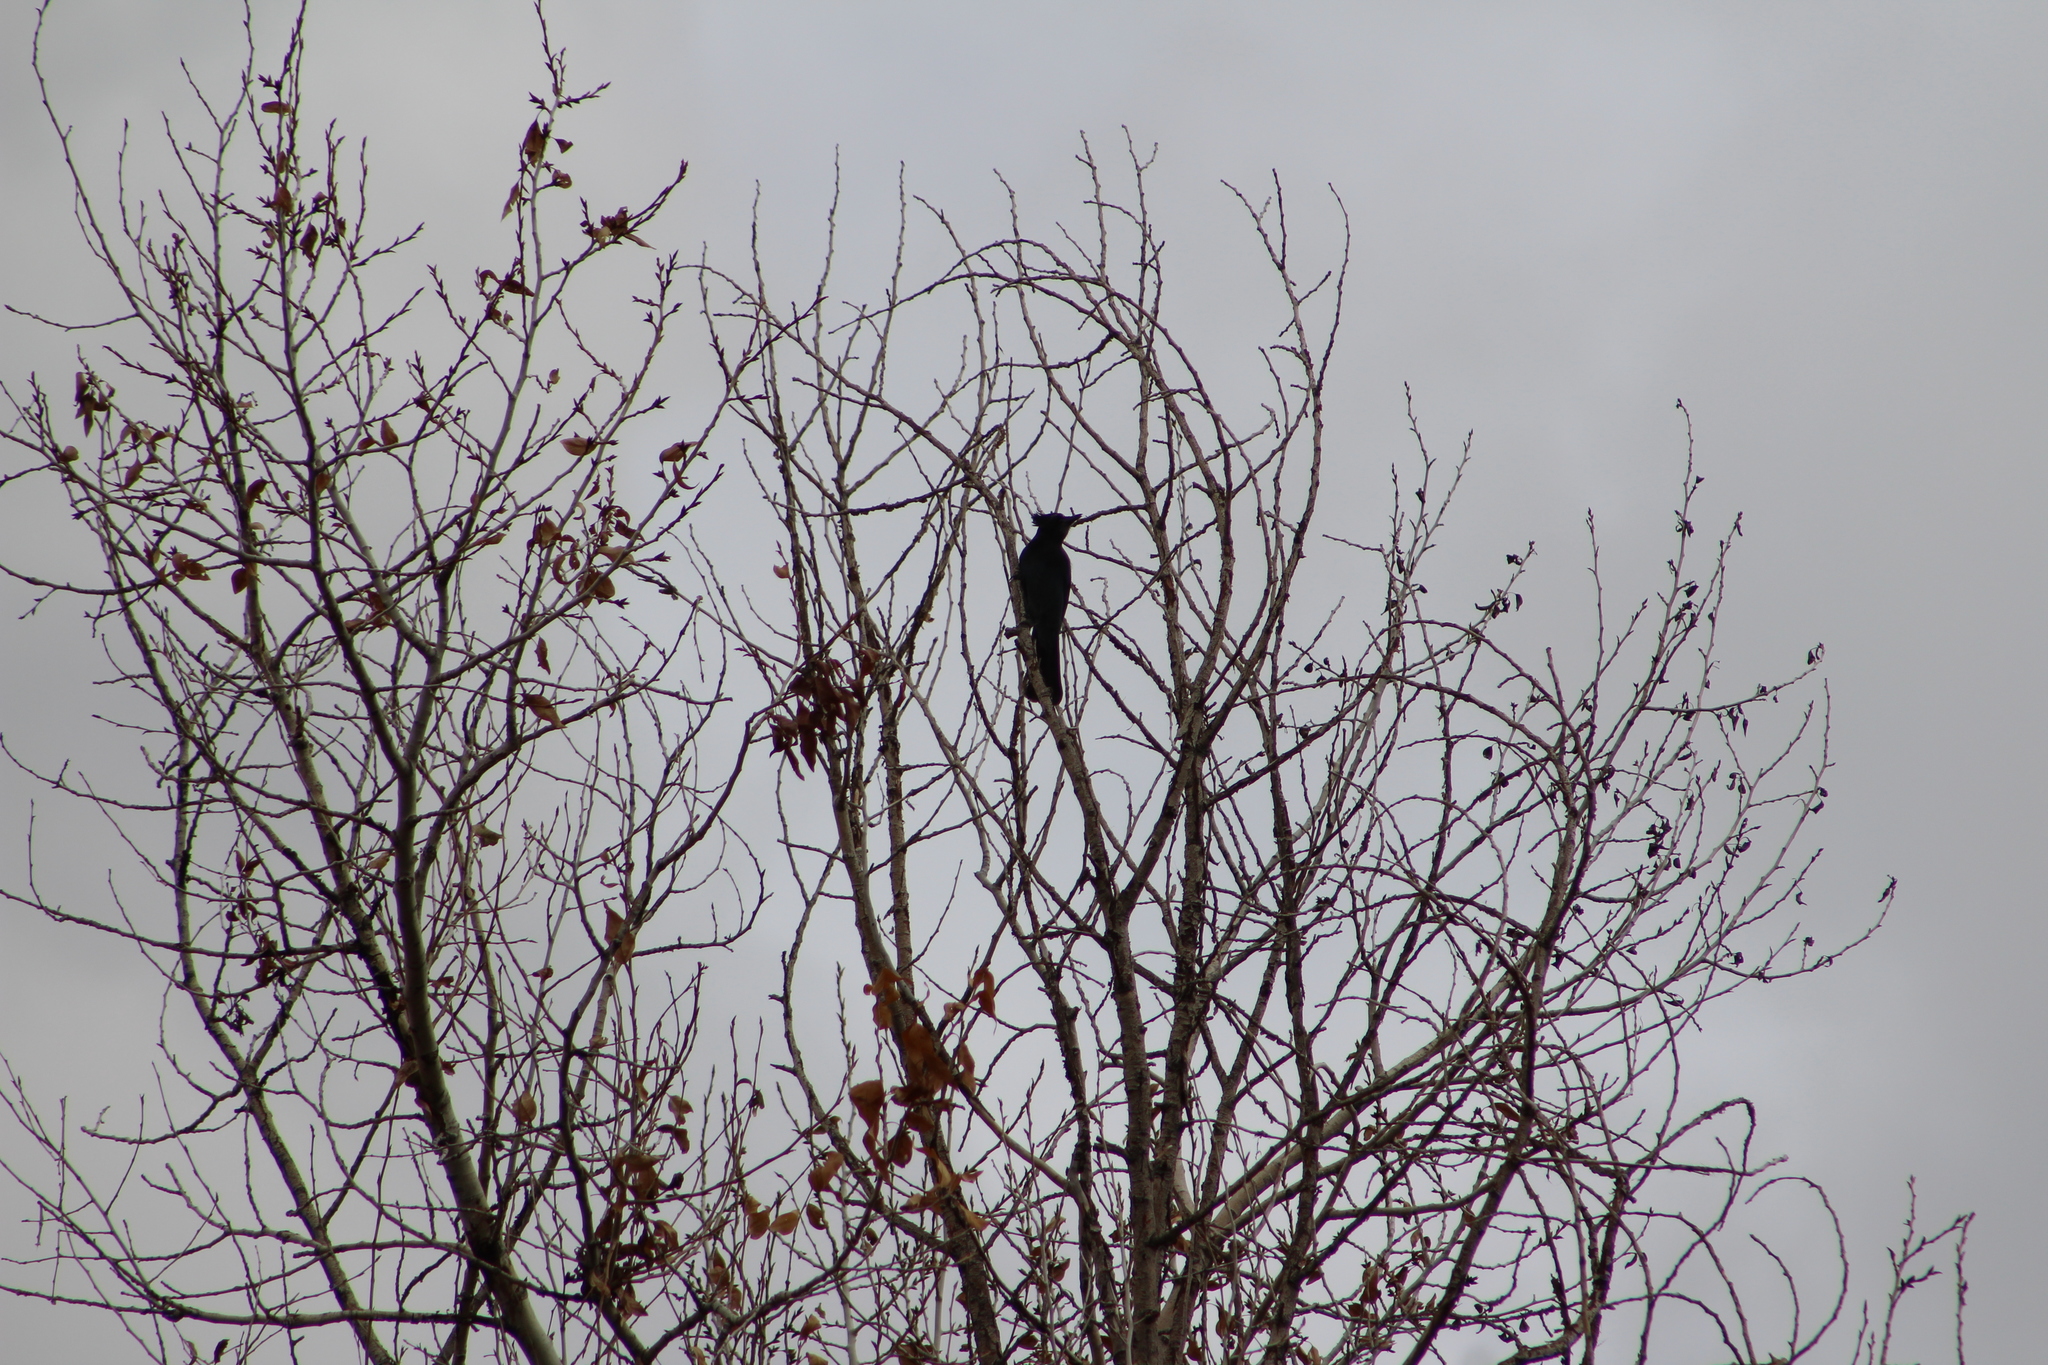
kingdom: Animalia
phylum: Chordata
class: Aves
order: Passeriformes
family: Corvidae
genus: Cyanocitta
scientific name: Cyanocitta stelleri
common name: Steller's jay
